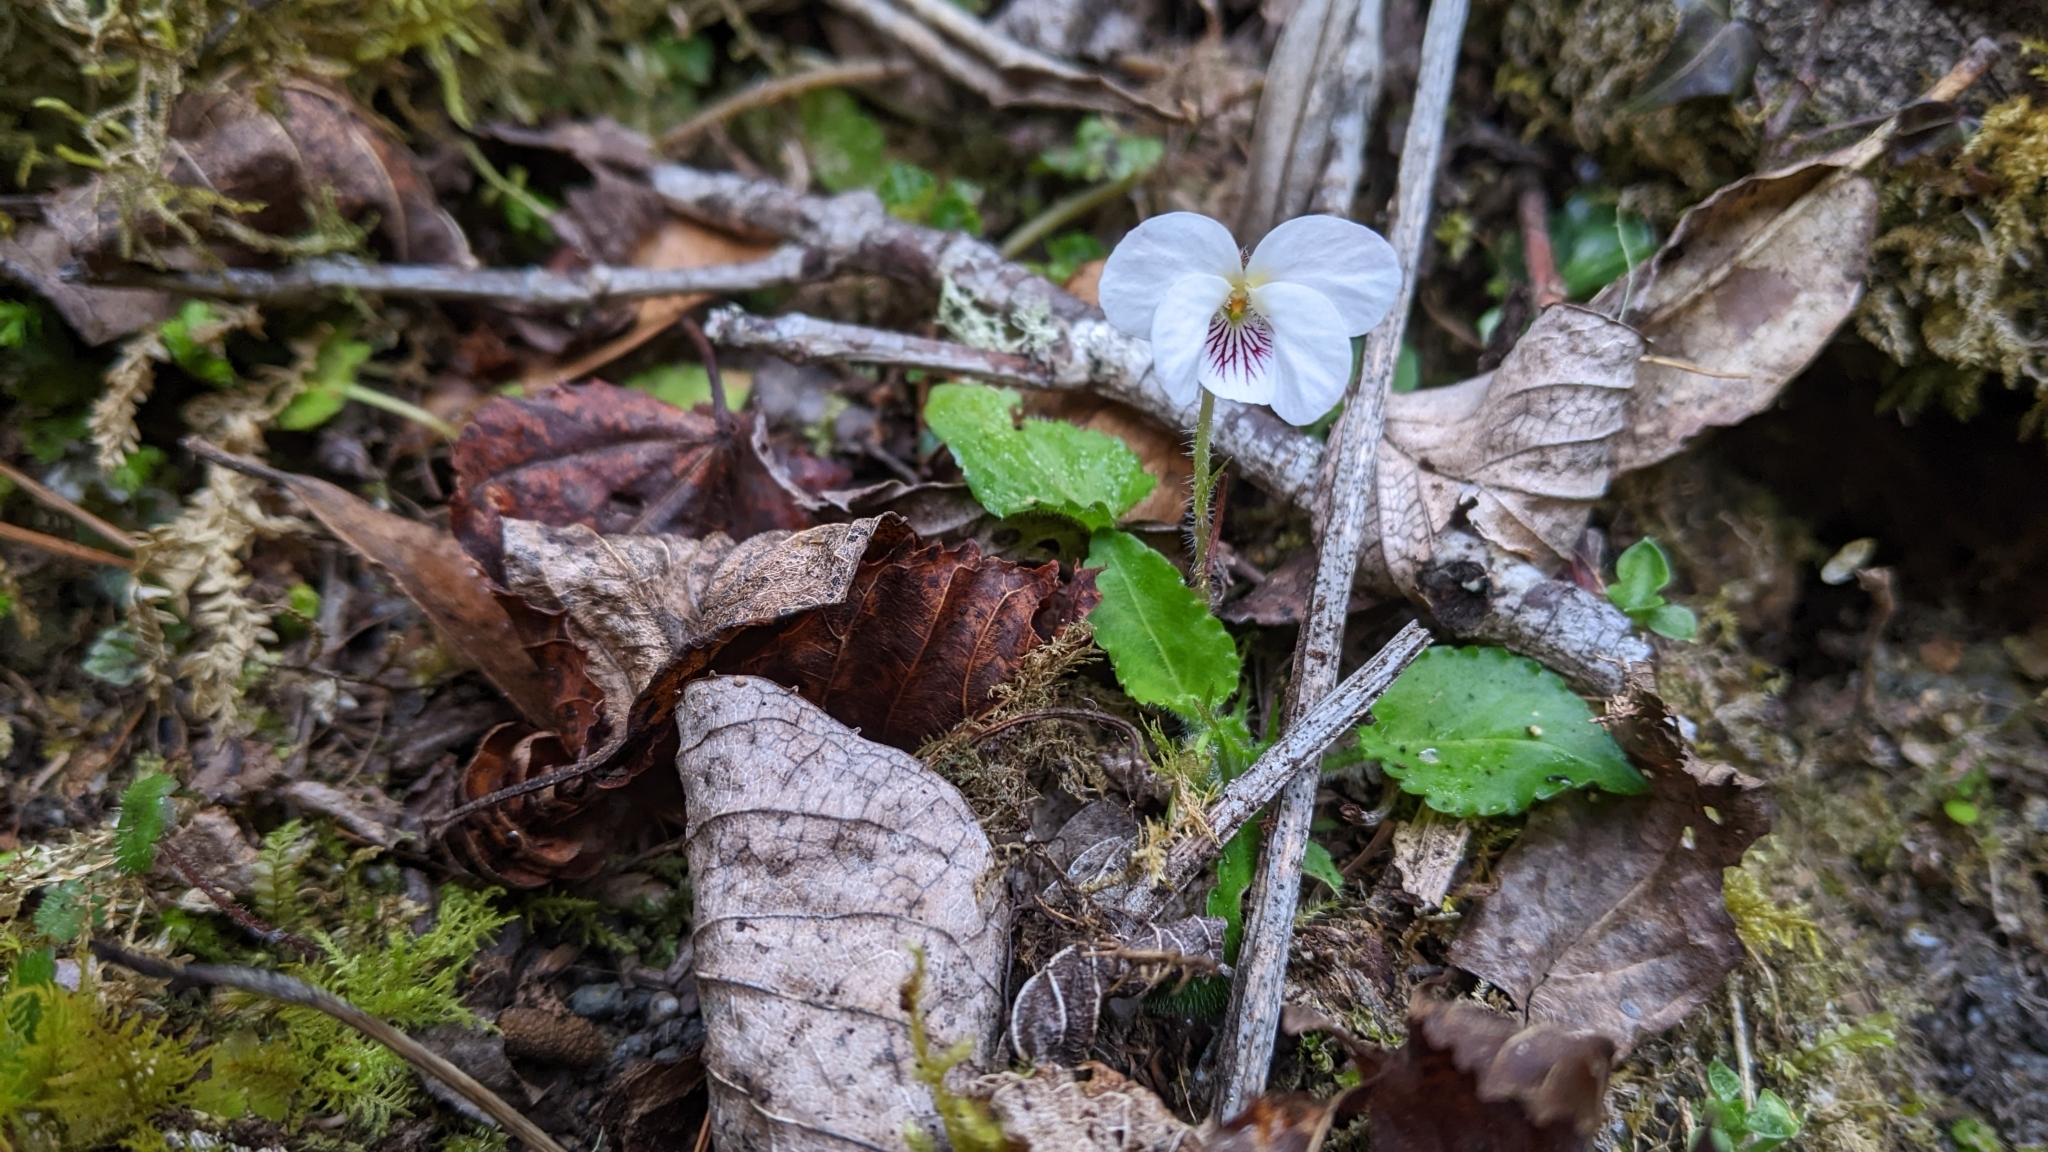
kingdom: Plantae
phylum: Tracheophyta
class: Magnoliopsida
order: Malpighiales
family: Violaceae
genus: Viola
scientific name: Viola adenothrix
